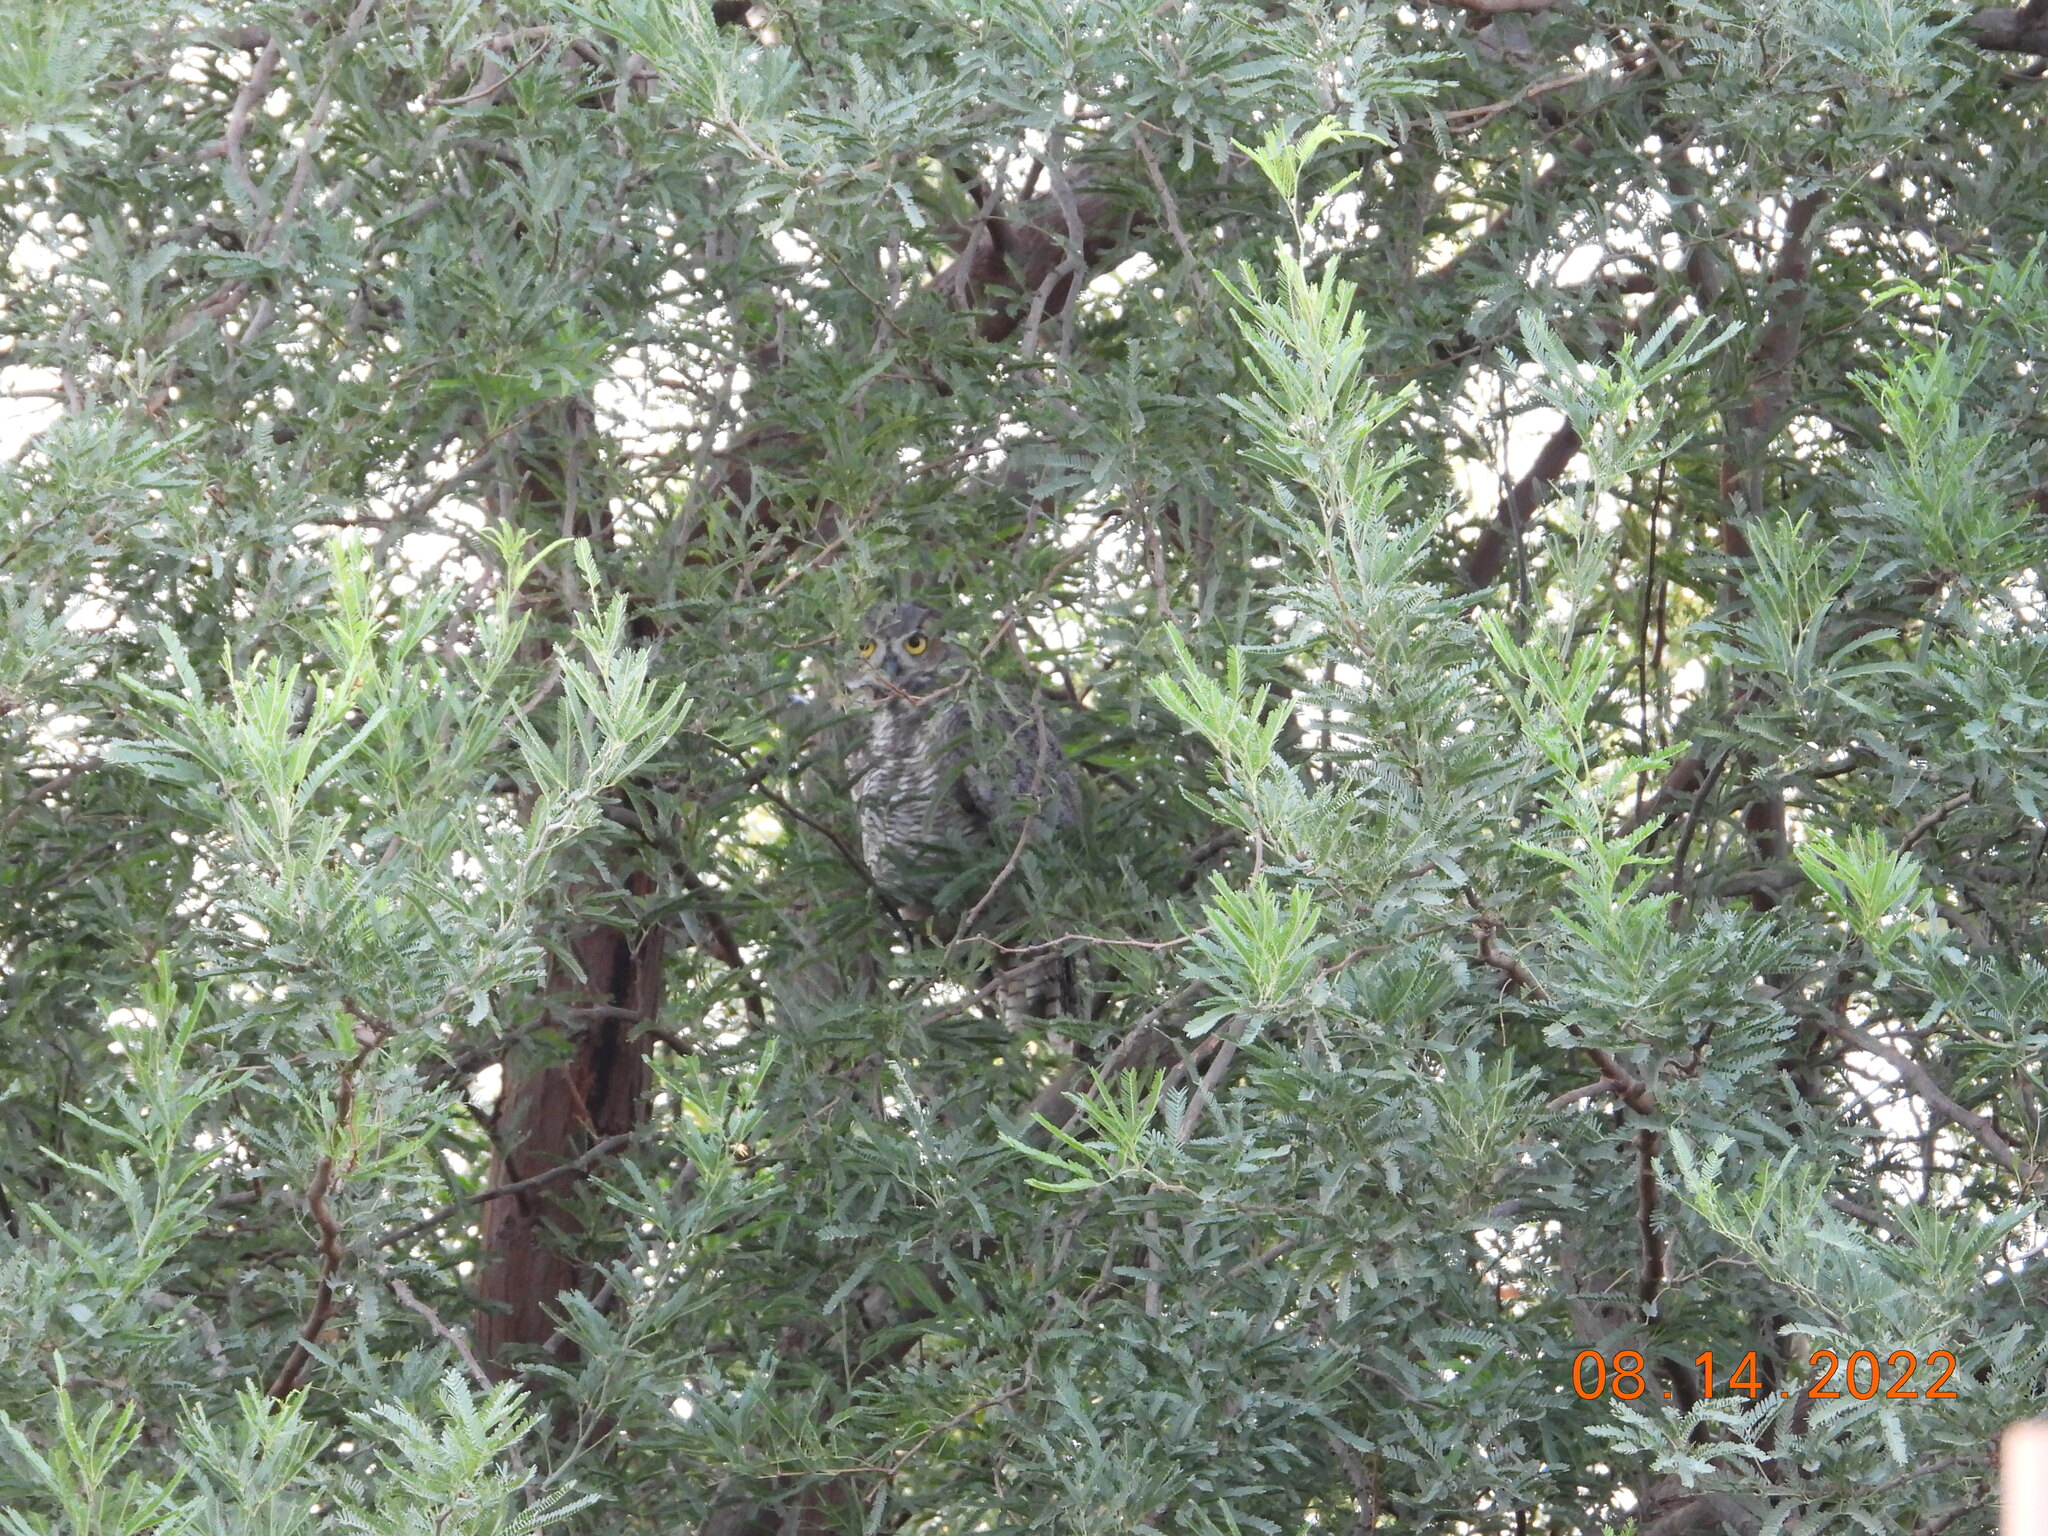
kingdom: Animalia
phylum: Chordata
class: Aves
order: Strigiformes
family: Strigidae
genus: Bubo
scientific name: Bubo virginianus
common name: Great horned owl
